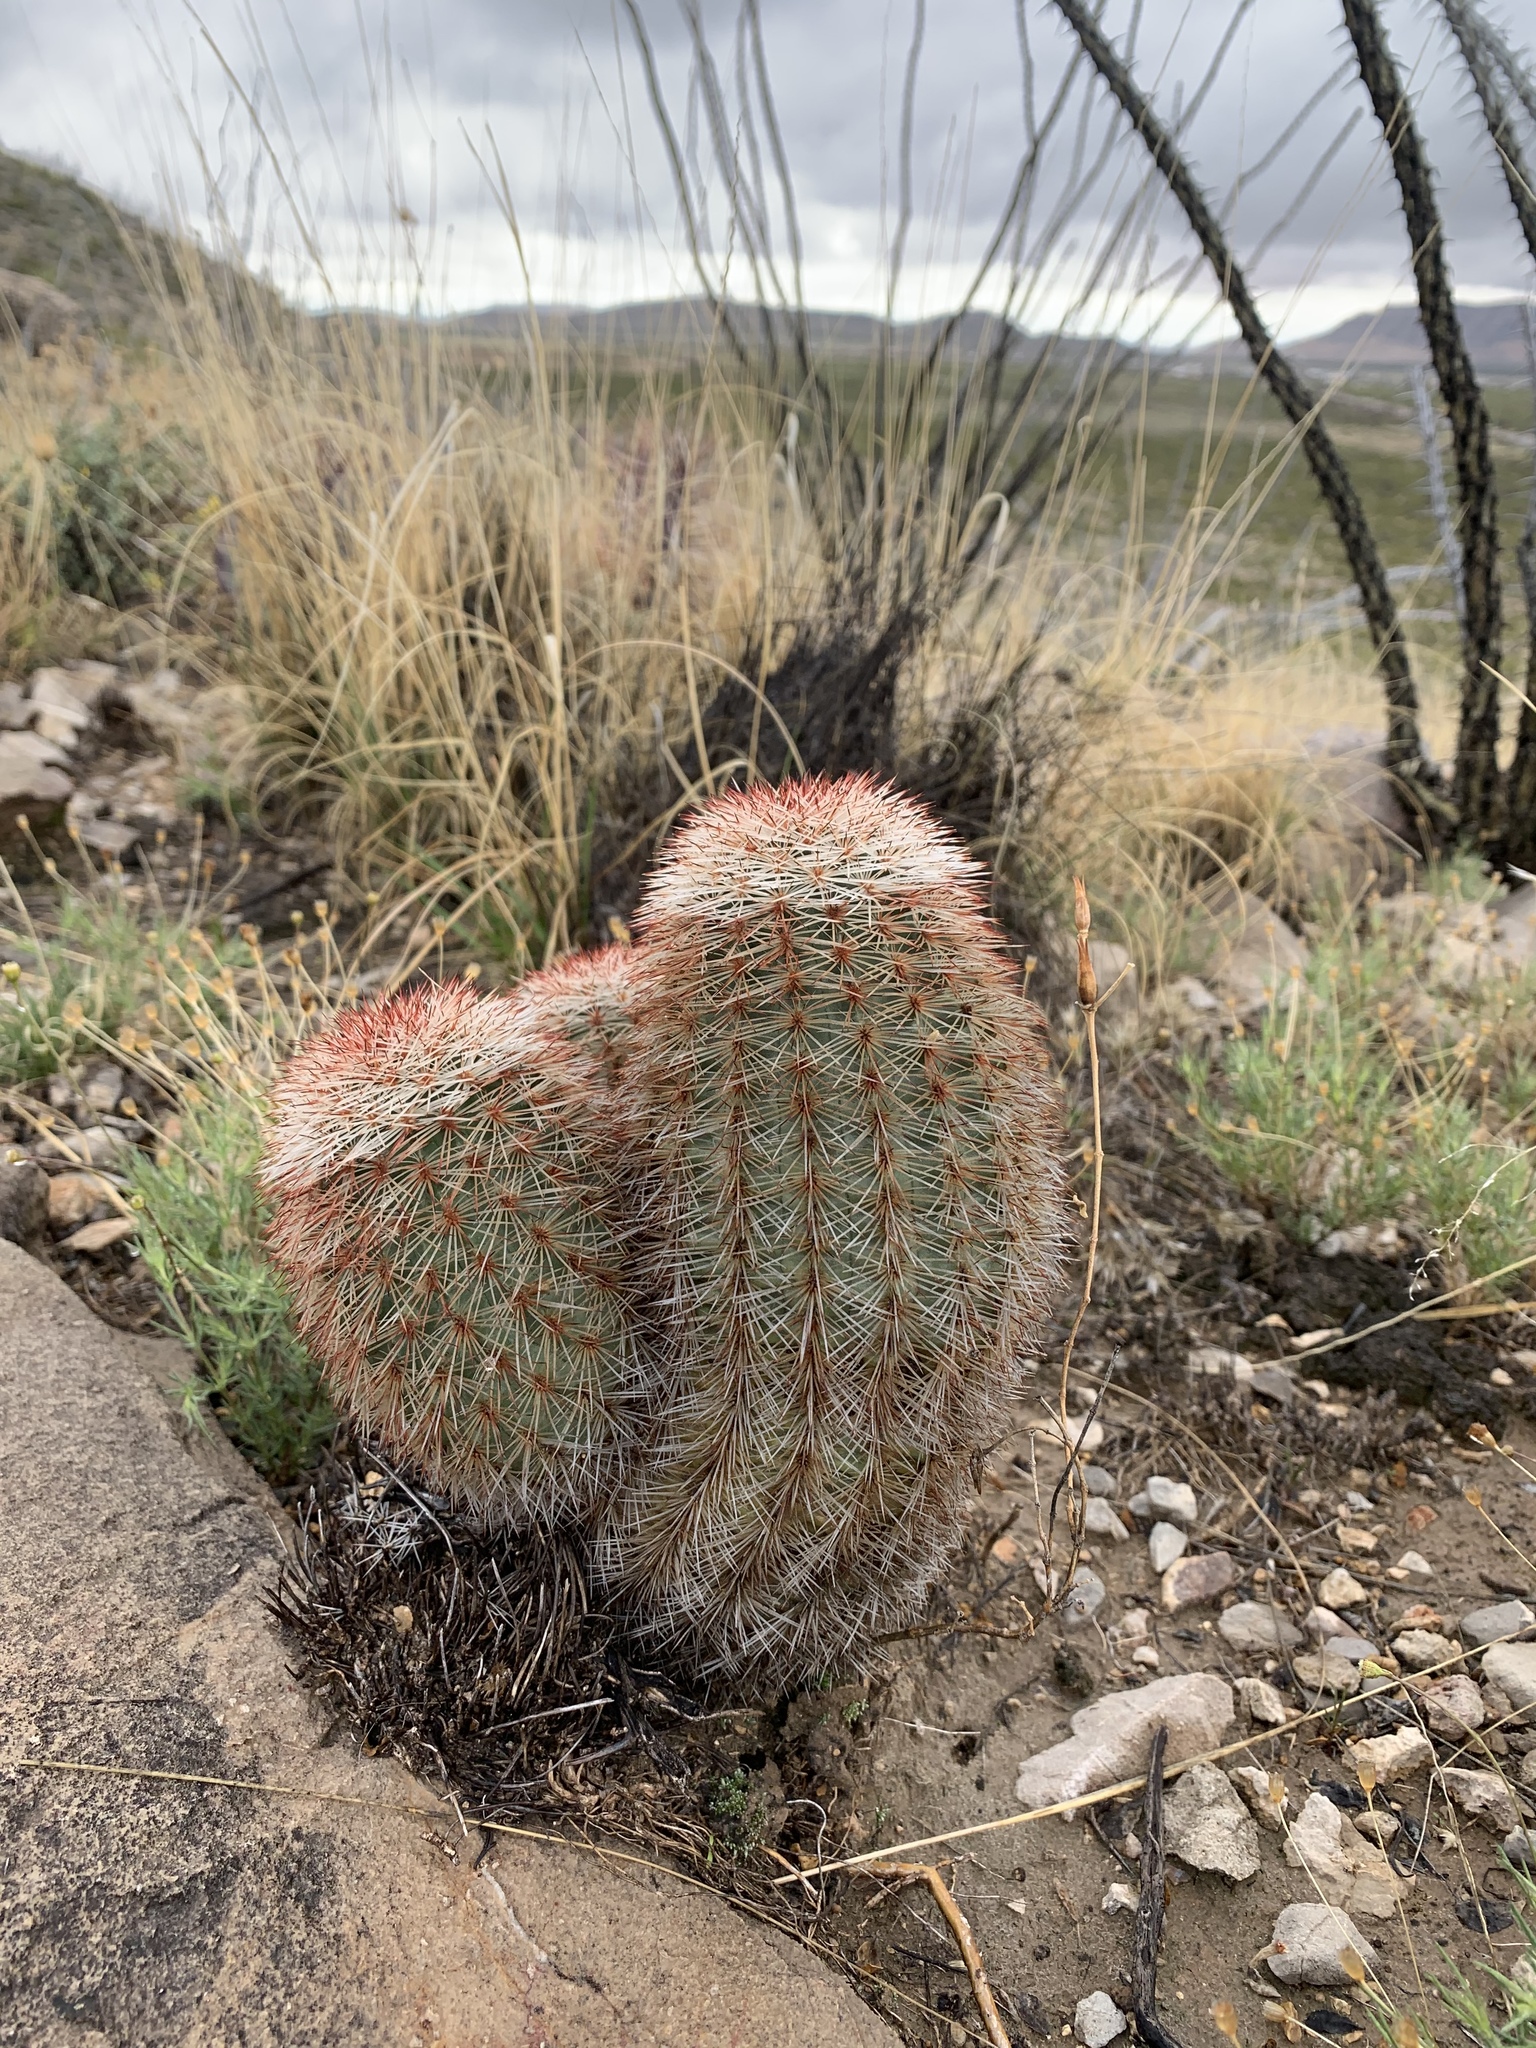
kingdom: Plantae
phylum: Tracheophyta
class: Magnoliopsida
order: Caryophyllales
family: Cactaceae
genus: Echinocereus
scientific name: Echinocereus dasyacanthus
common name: Spiny hedgehog cactus
